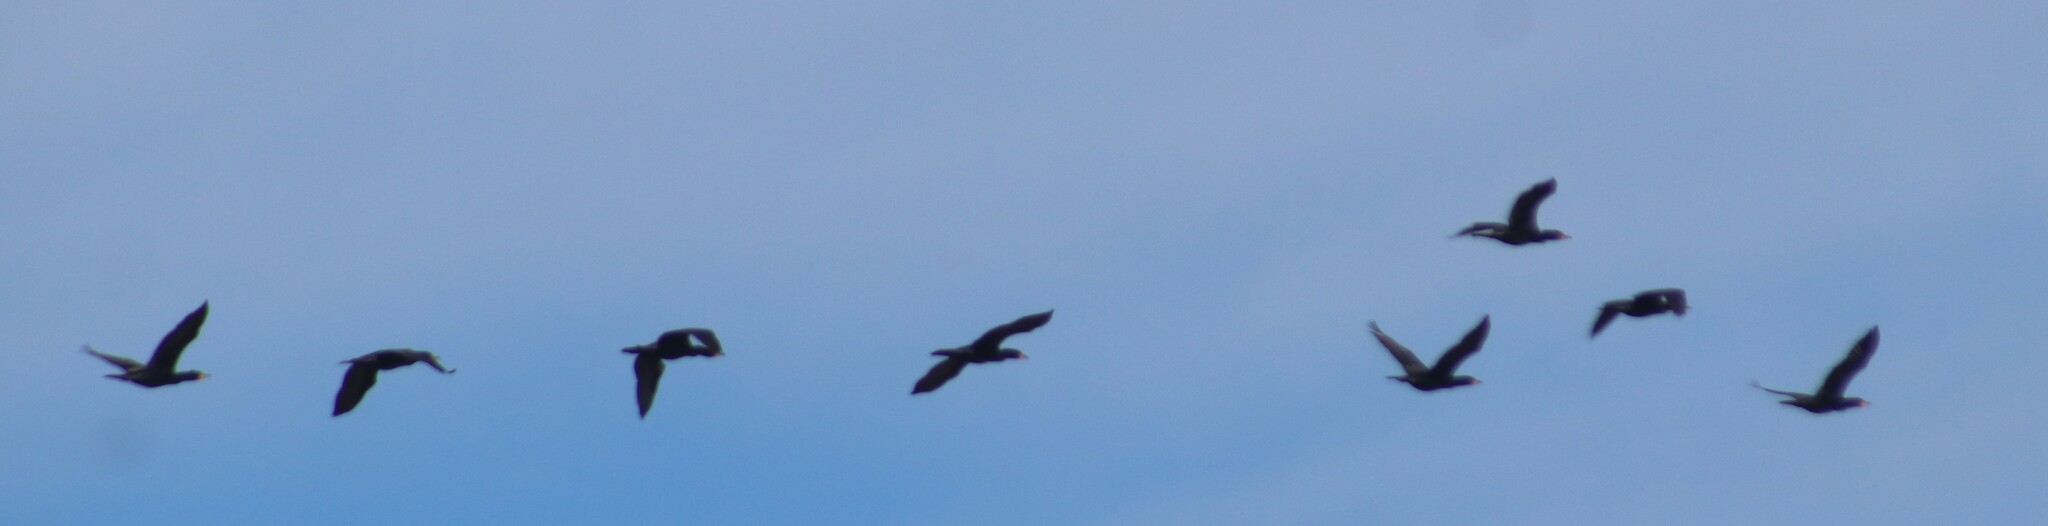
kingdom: Animalia
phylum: Chordata
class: Aves
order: Suliformes
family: Phalacrocoracidae
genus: Phalacrocorax
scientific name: Phalacrocorax auritus
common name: Double-crested cormorant
